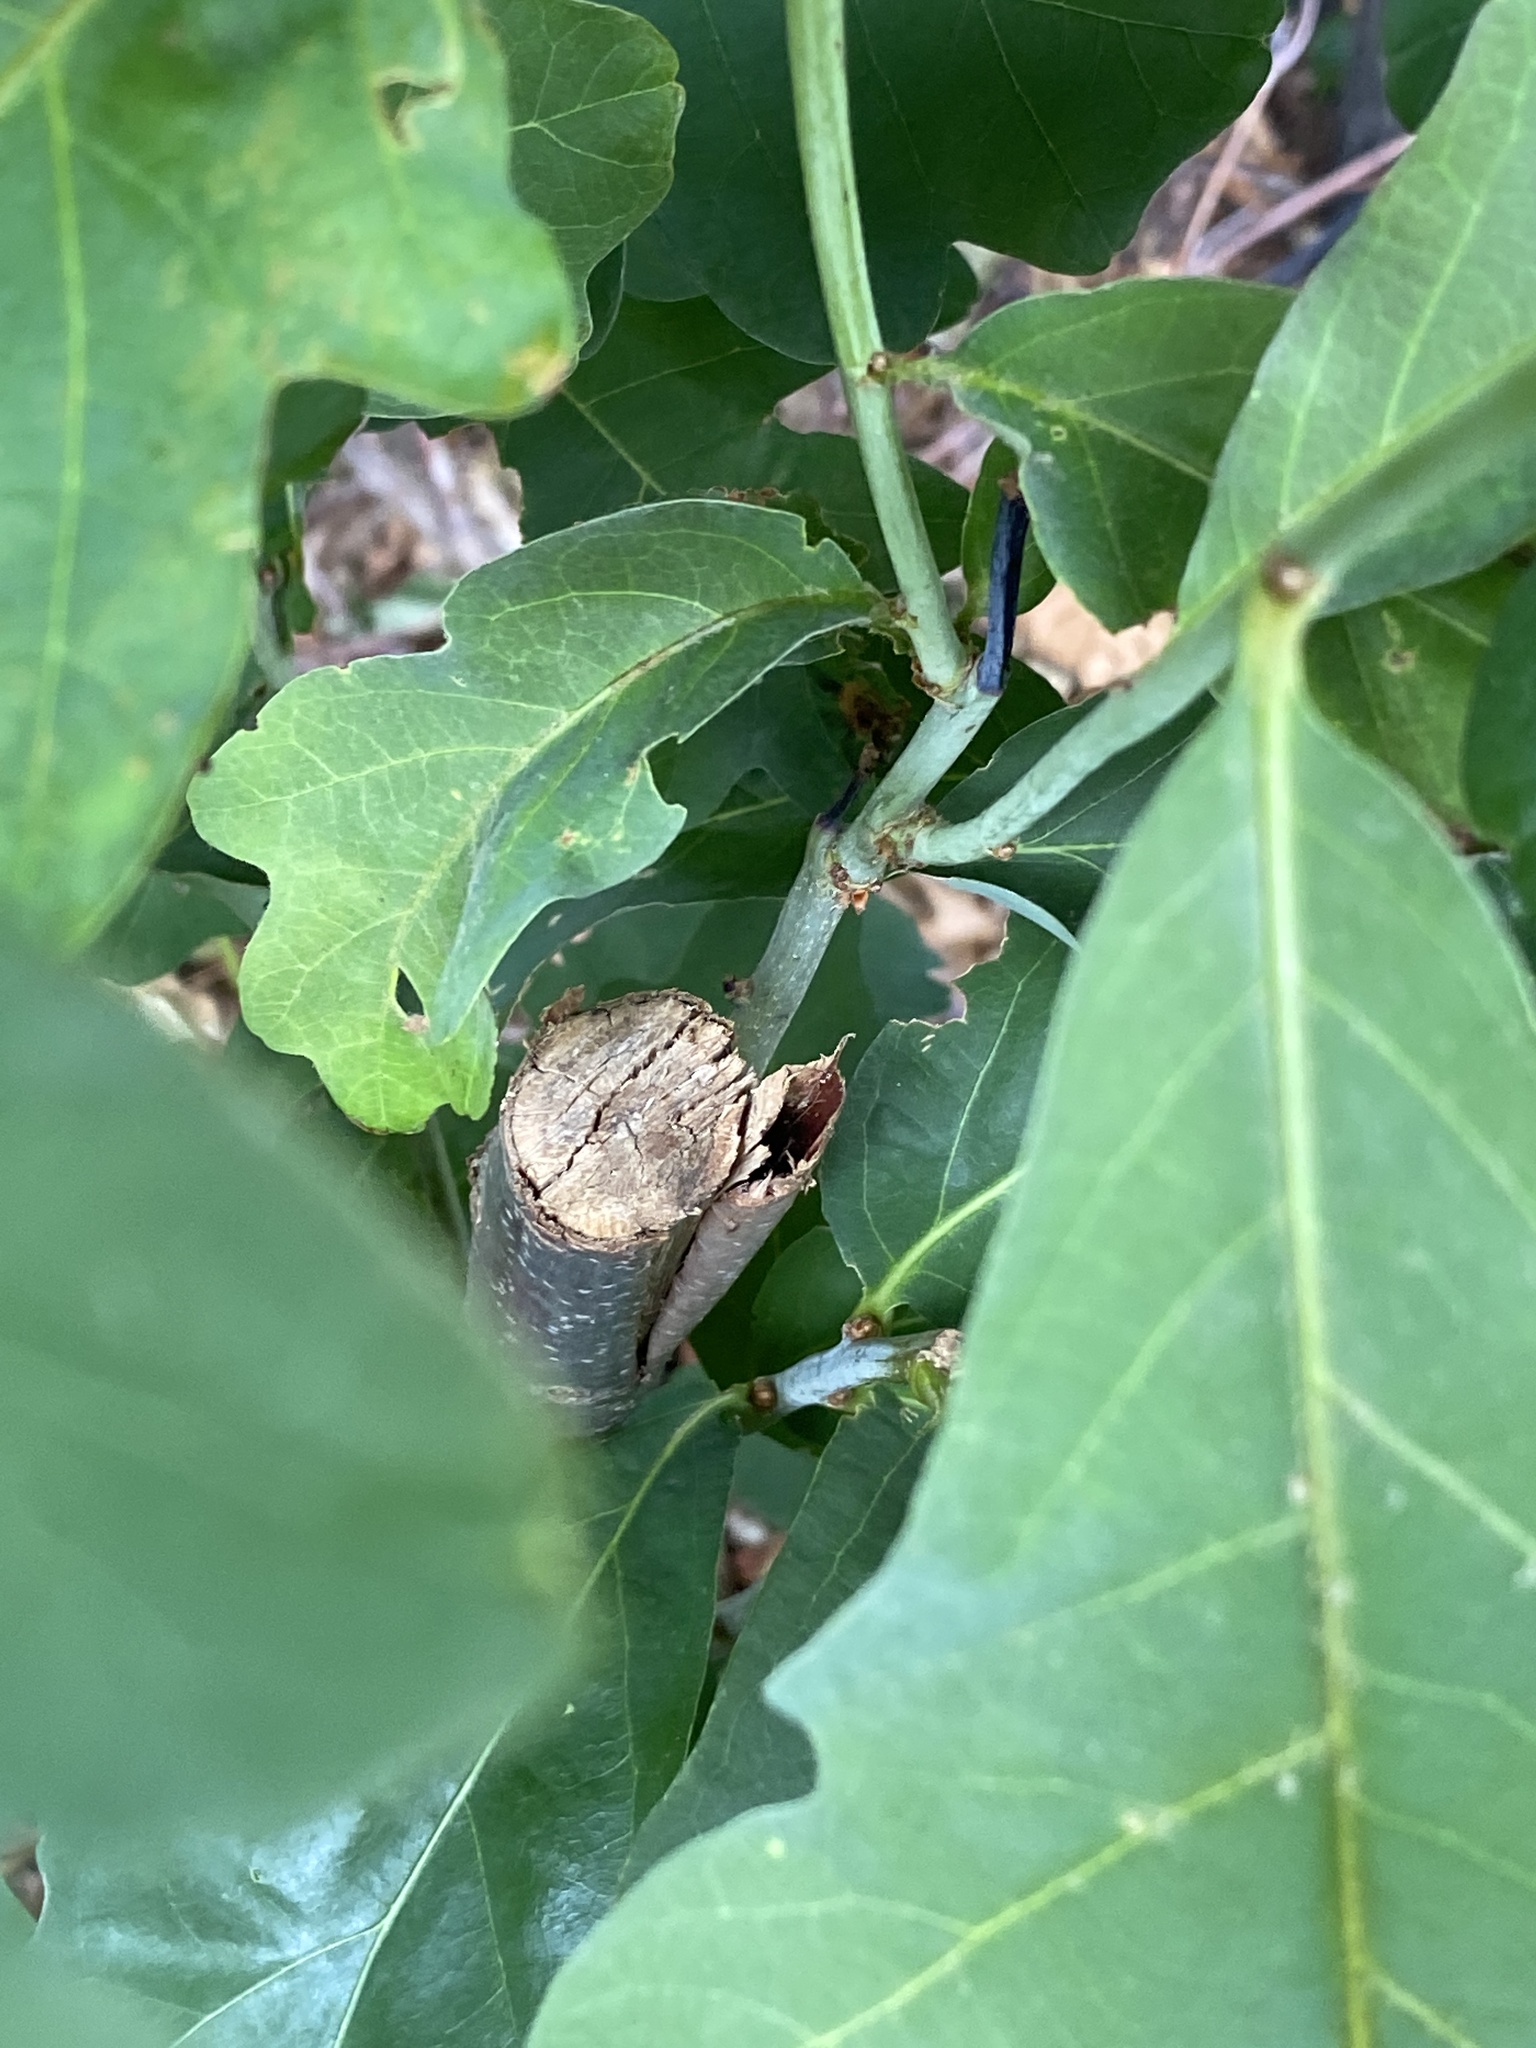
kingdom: Plantae
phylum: Tracheophyta
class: Magnoliopsida
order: Fagales
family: Fagaceae
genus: Quercus
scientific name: Quercus alba
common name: White oak
